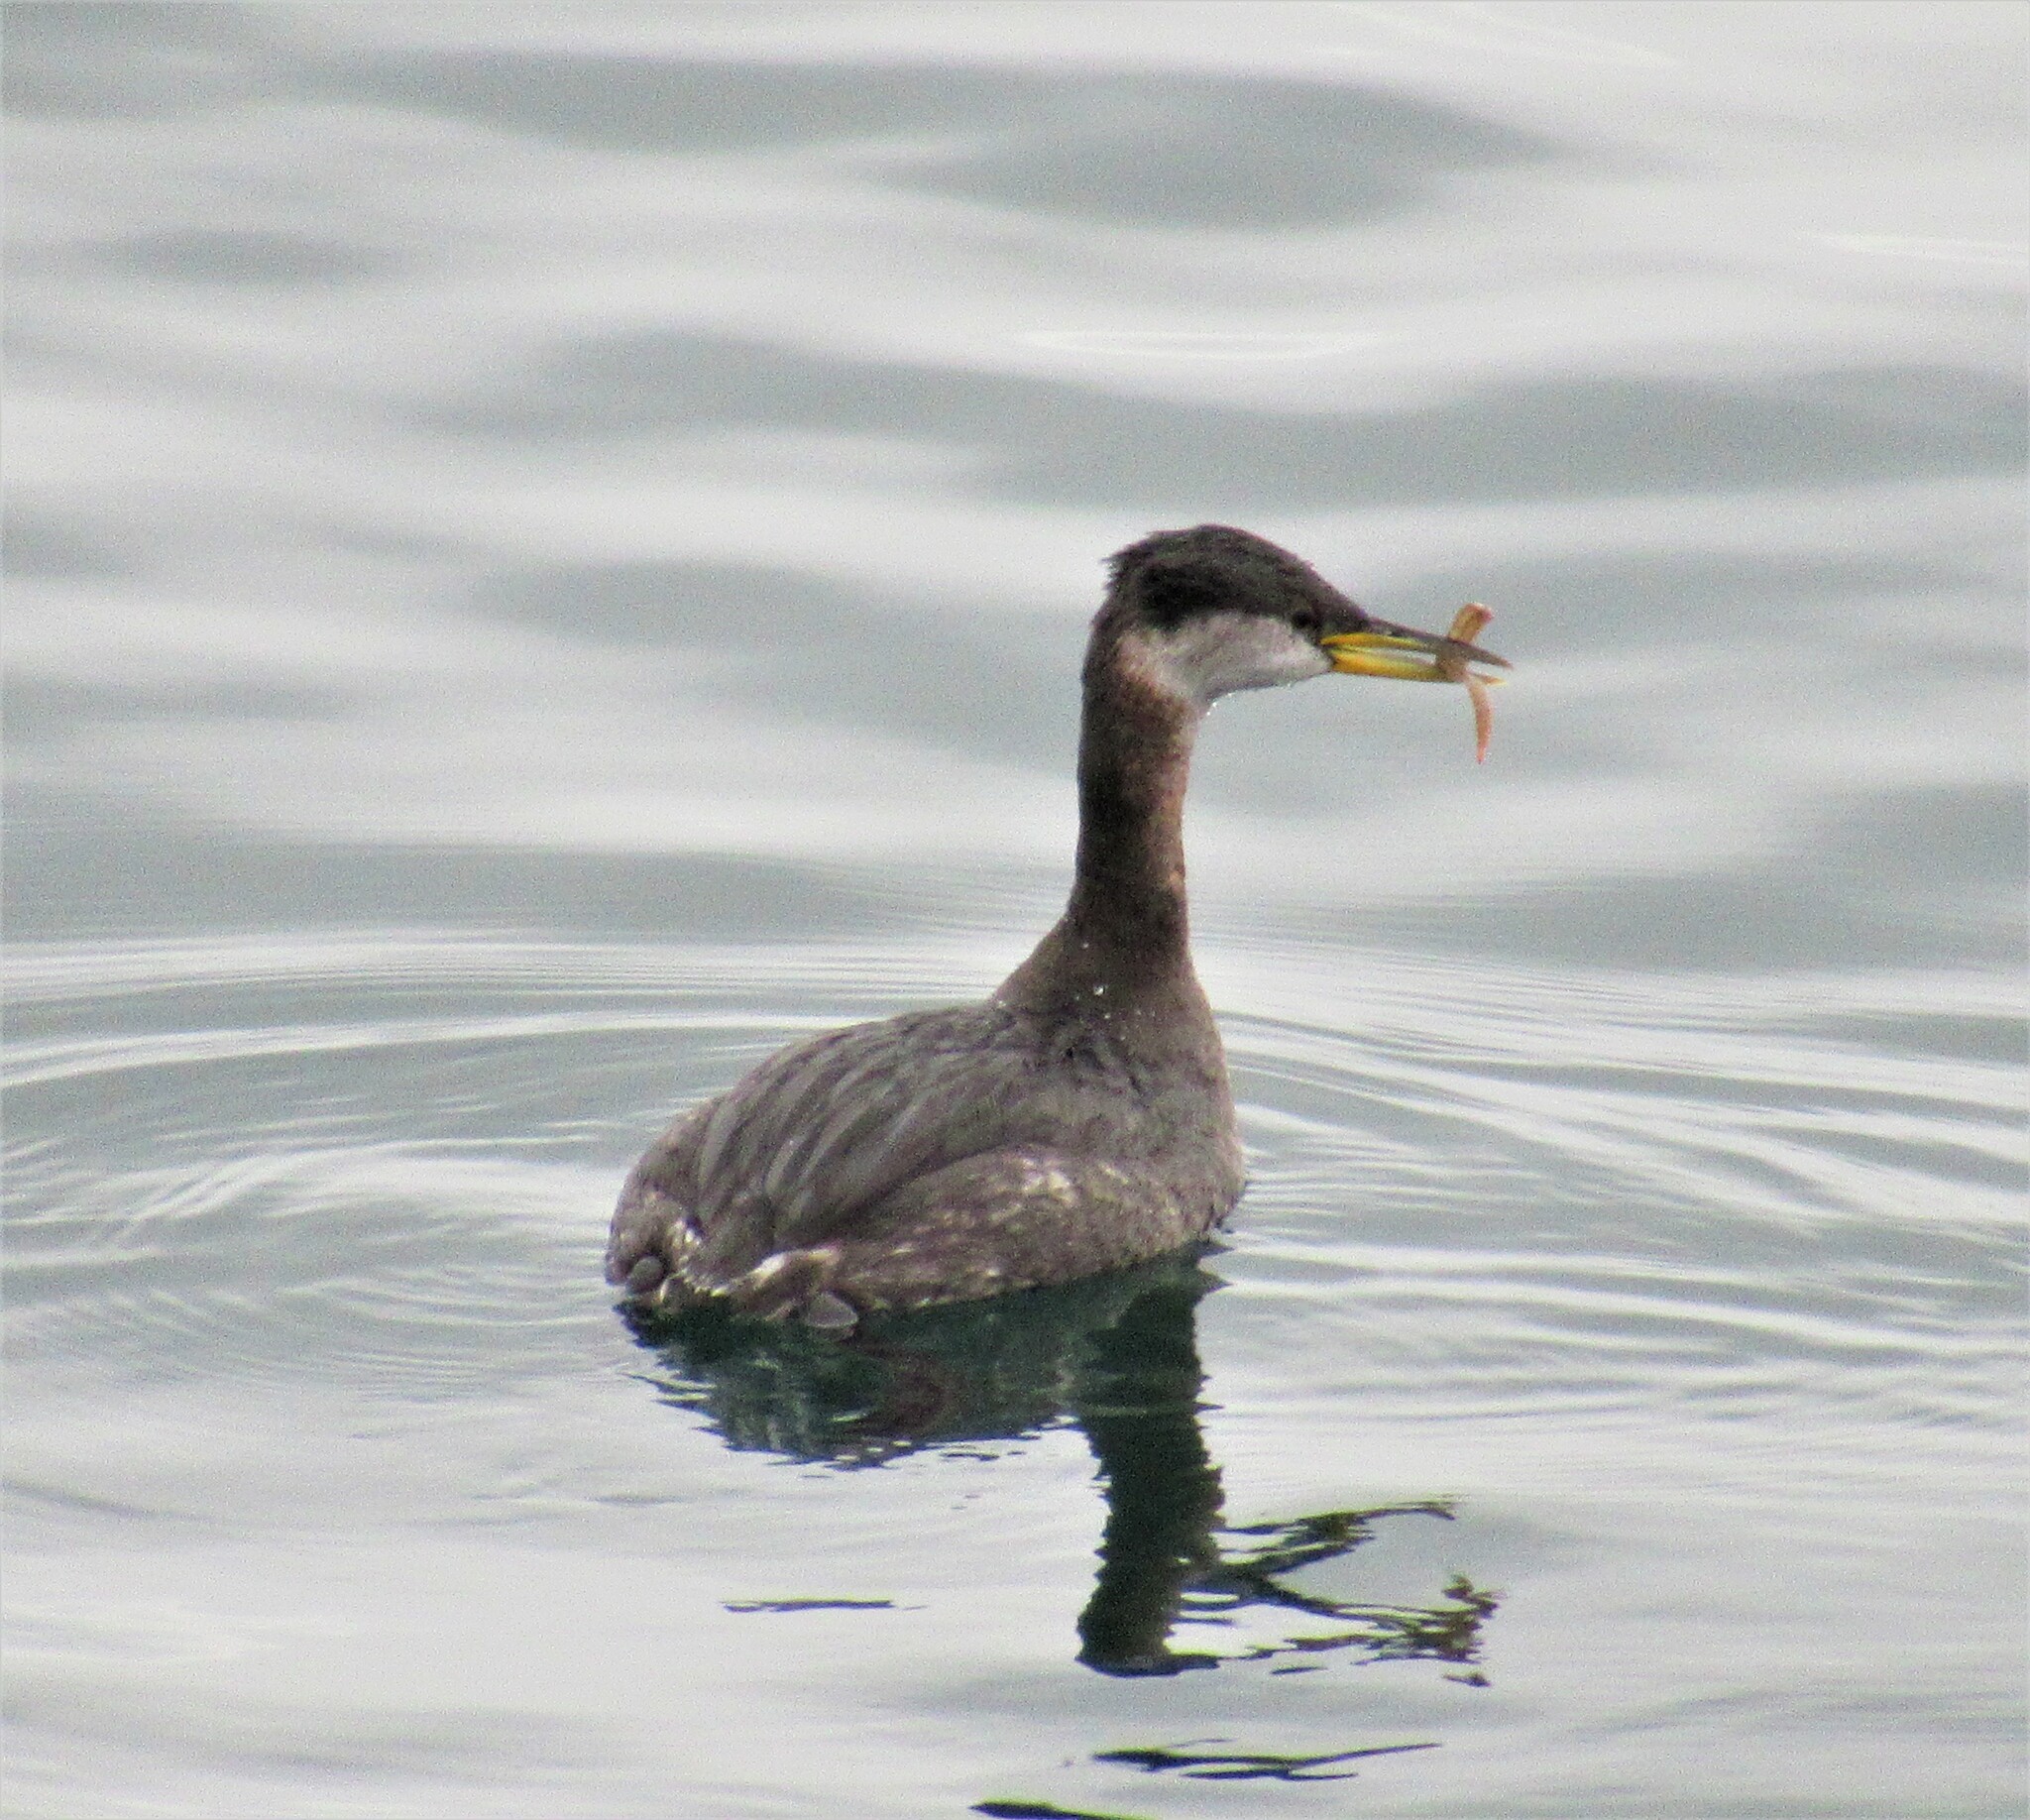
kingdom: Animalia
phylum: Chordata
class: Aves
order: Podicipediformes
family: Podicipedidae
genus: Podiceps
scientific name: Podiceps grisegena
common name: Red-necked grebe
